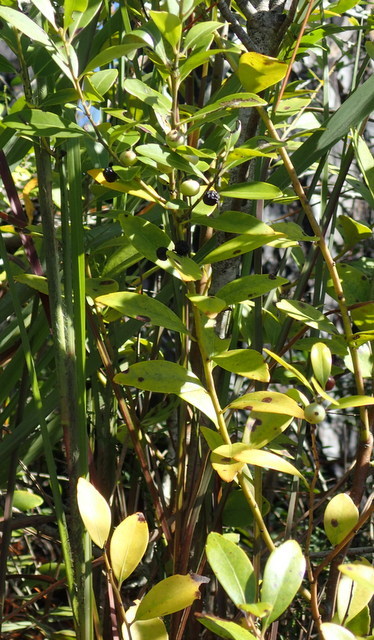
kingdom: Plantae
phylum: Tracheophyta
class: Magnoliopsida
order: Aquifoliales
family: Aquifoliaceae
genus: Ilex
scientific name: Ilex glabra
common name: Bitter gallberry
